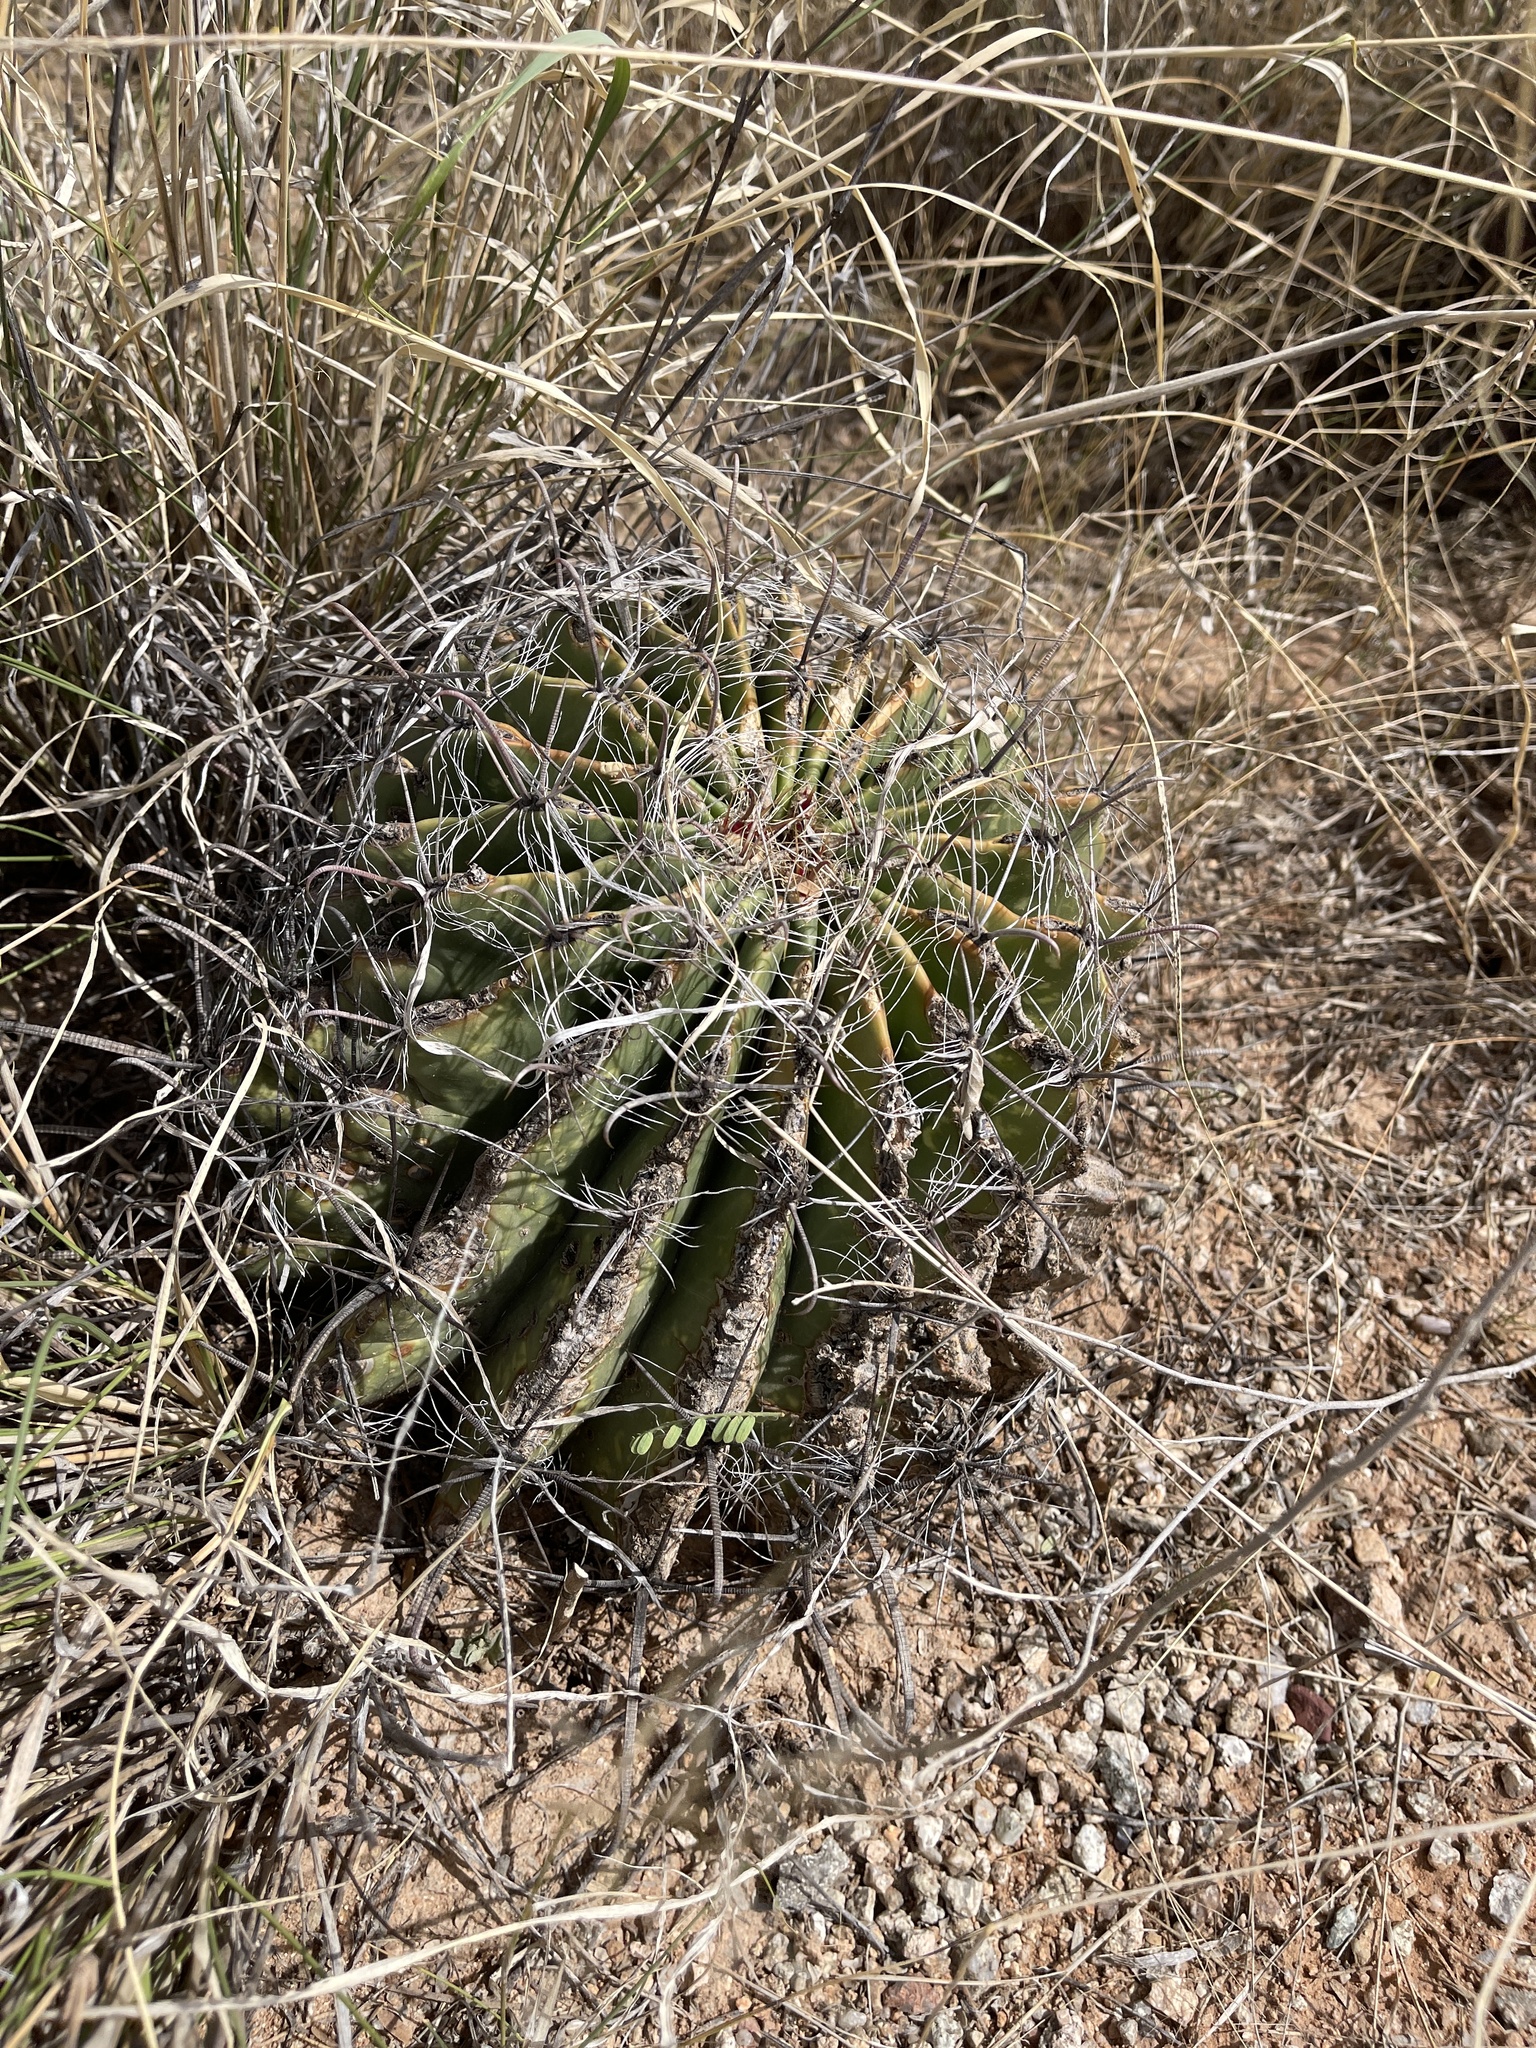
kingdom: Plantae
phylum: Tracheophyta
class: Magnoliopsida
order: Caryophyllales
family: Cactaceae
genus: Ferocactus
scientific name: Ferocactus wislizeni
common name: Candy barrel cactus
